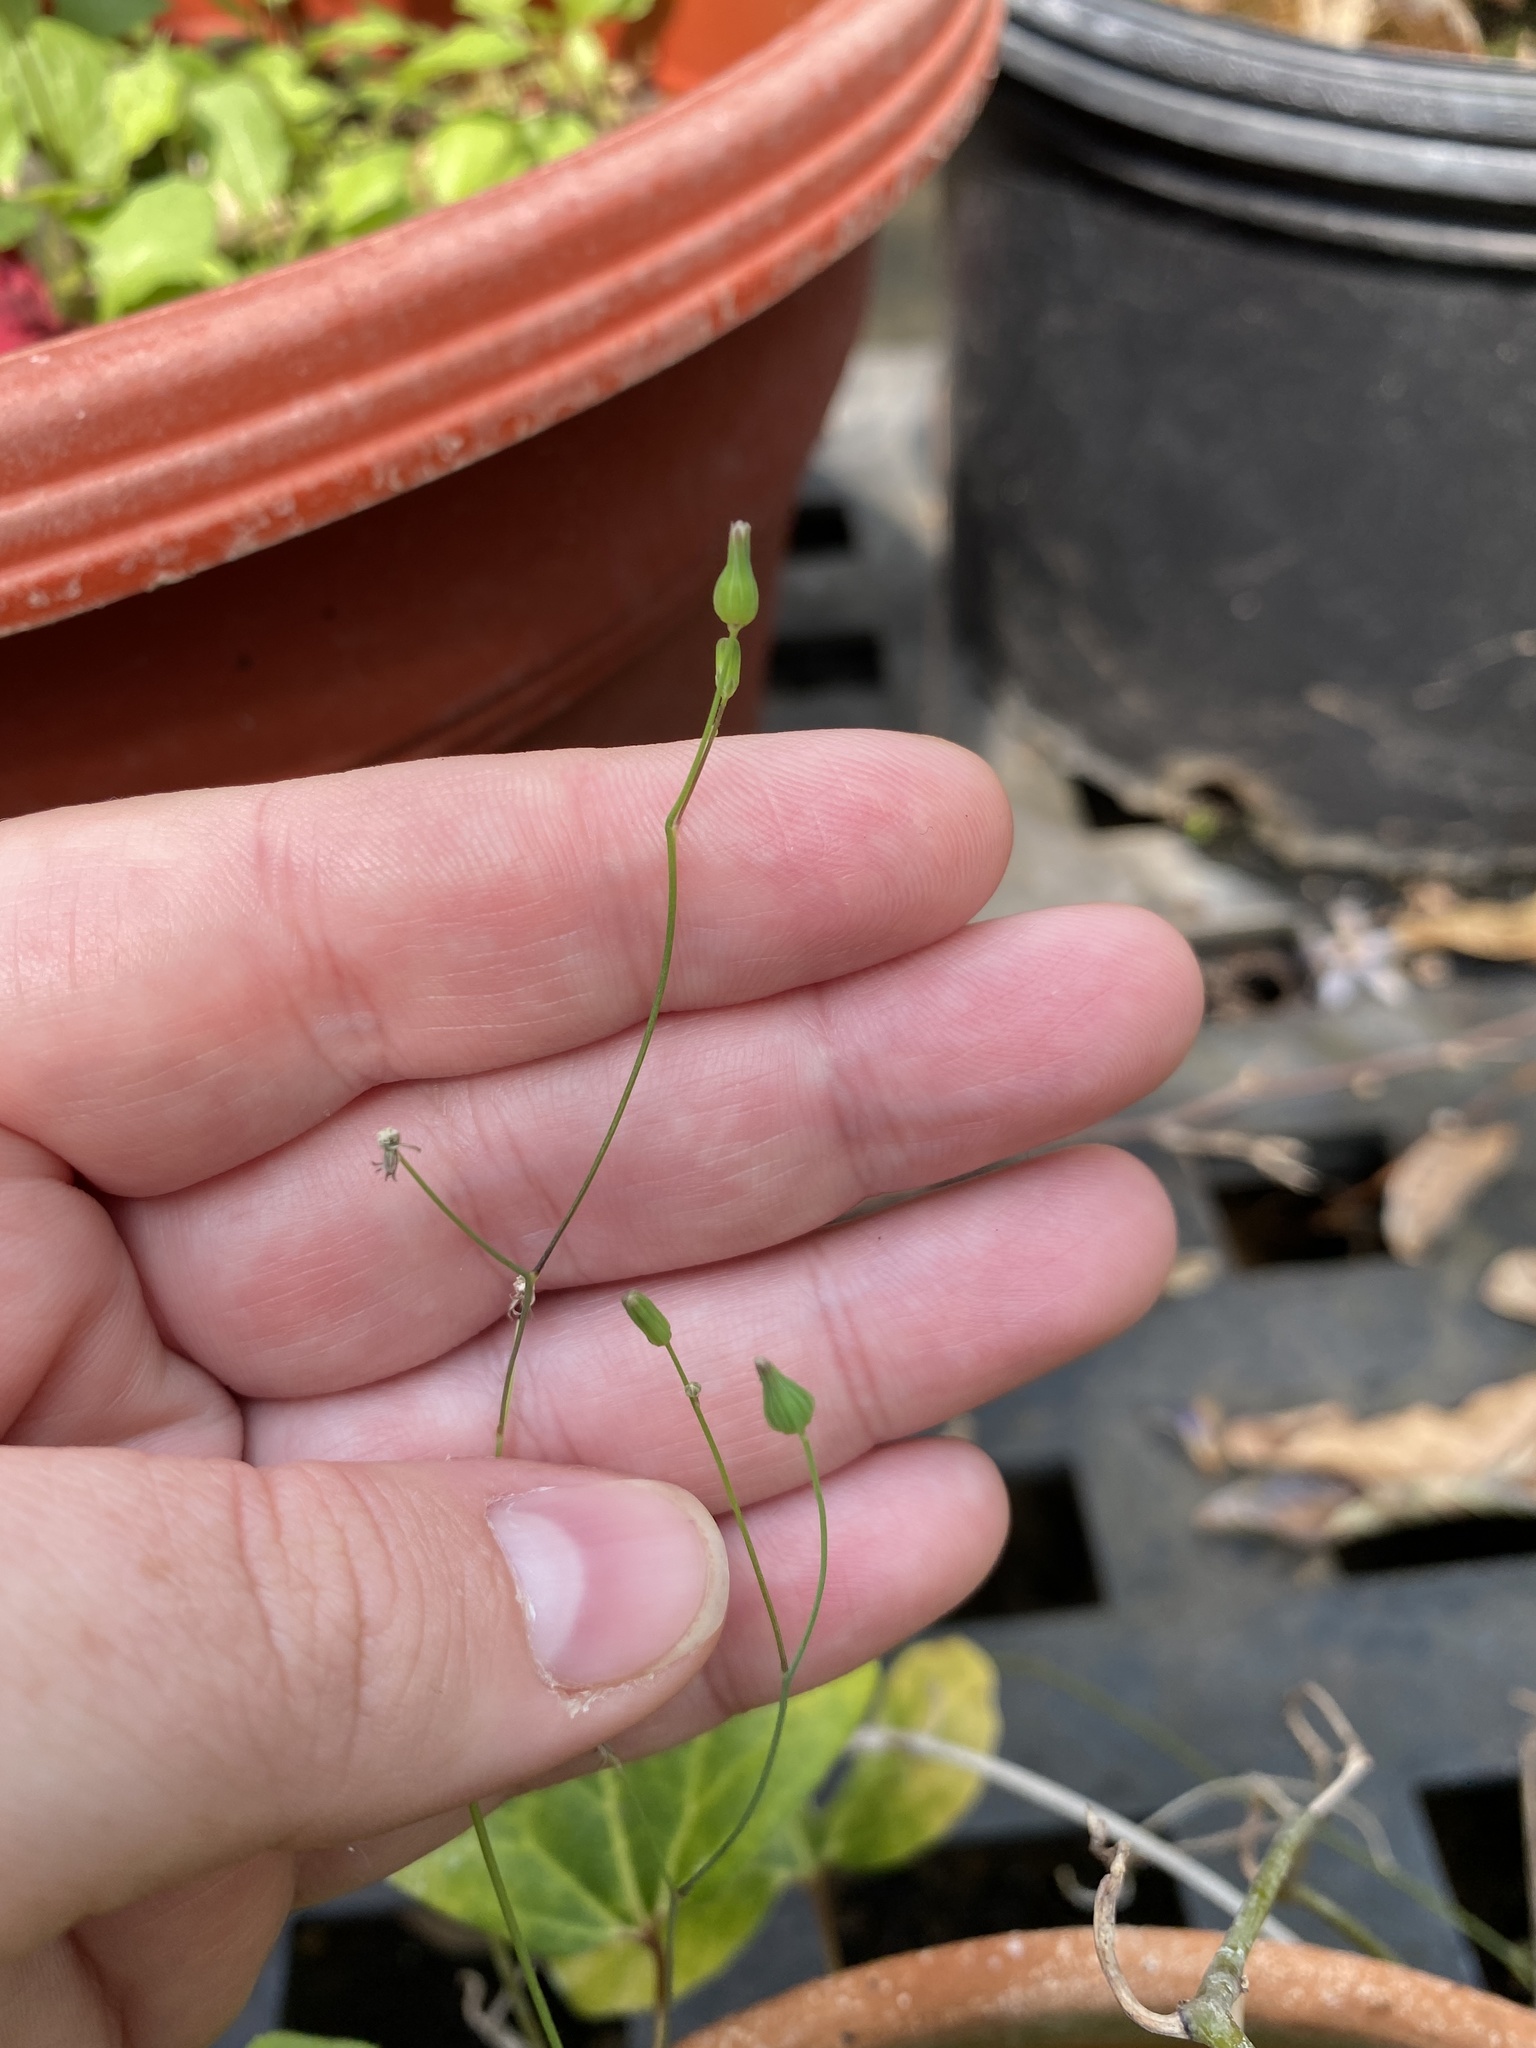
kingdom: Plantae
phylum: Tracheophyta
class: Magnoliopsida
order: Asterales
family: Asteraceae
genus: Youngia
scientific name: Youngia japonica
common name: Oriental false hawksbeard
